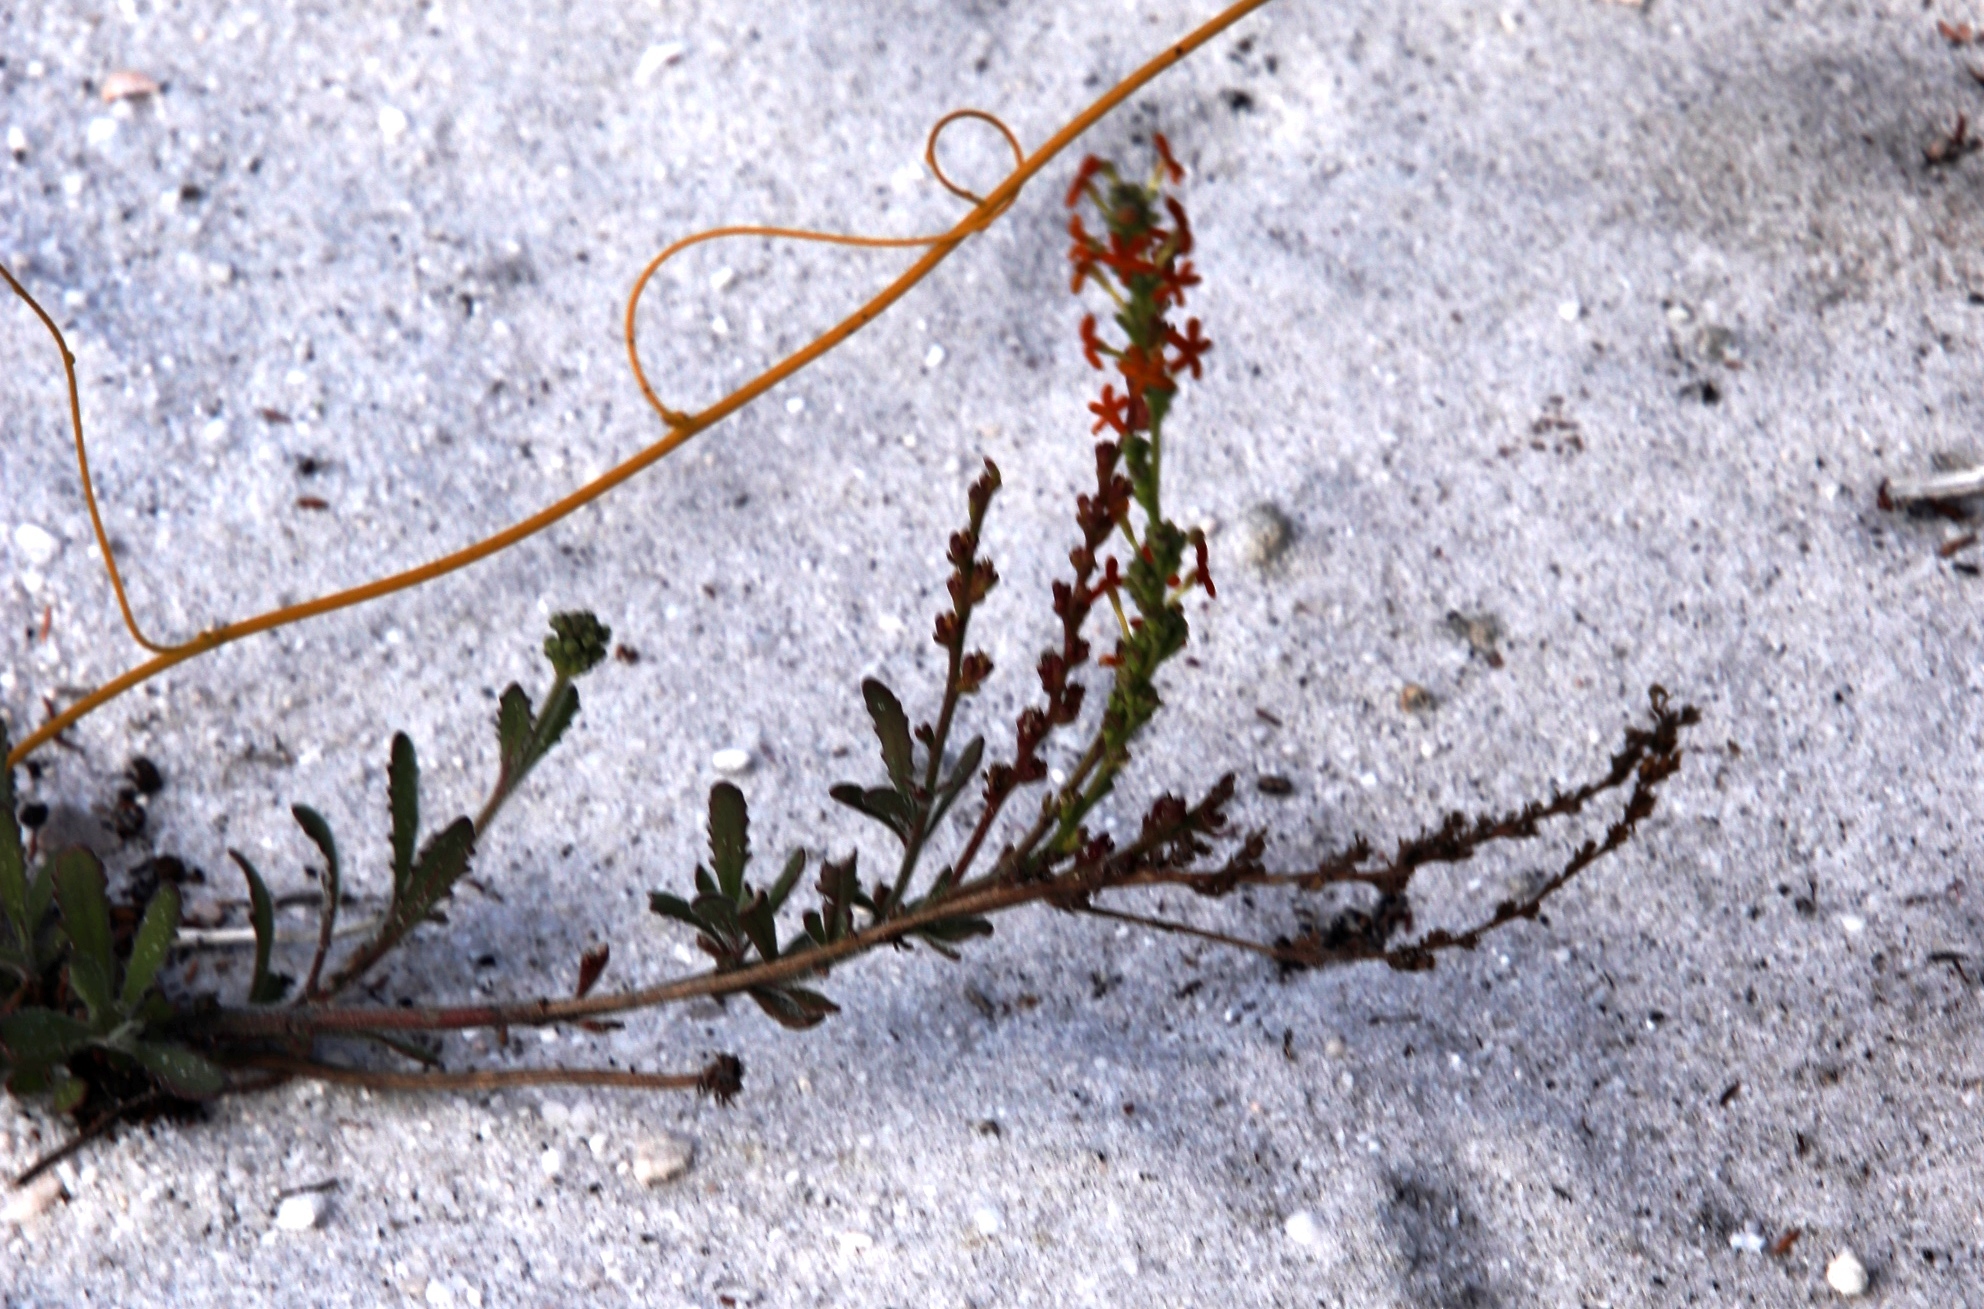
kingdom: Plantae
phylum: Tracheophyta
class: Magnoliopsida
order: Lamiales
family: Scrophulariaceae
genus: Manulea
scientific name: Manulea rubra
